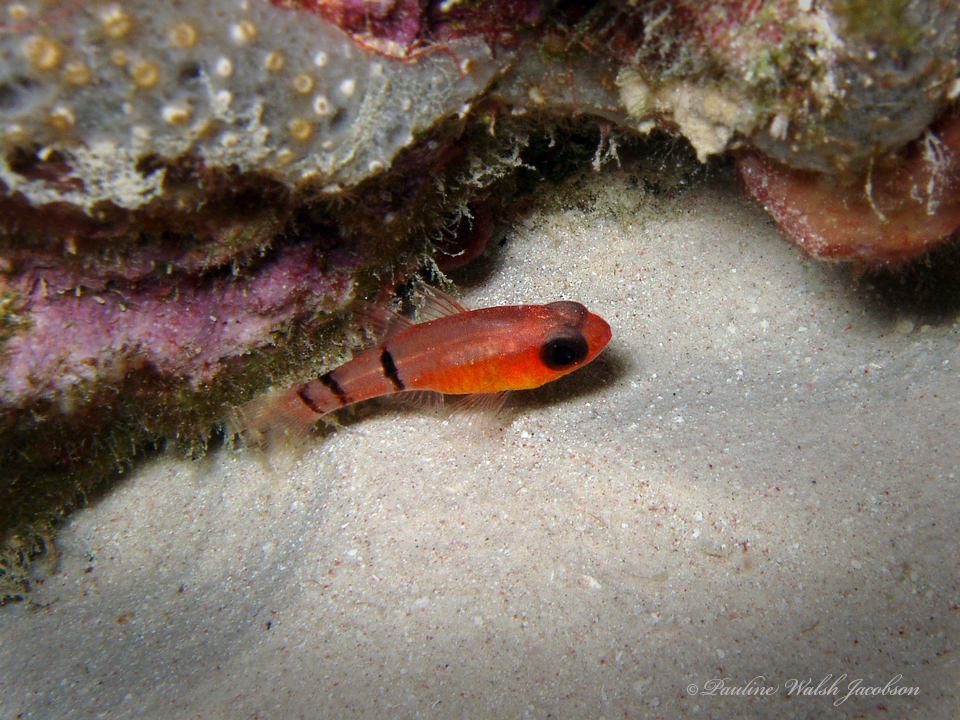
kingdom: Animalia
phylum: Chordata
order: Perciformes
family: Apogonidae
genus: Apogon
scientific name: Apogon townsendi
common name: Belted cardinalfish
